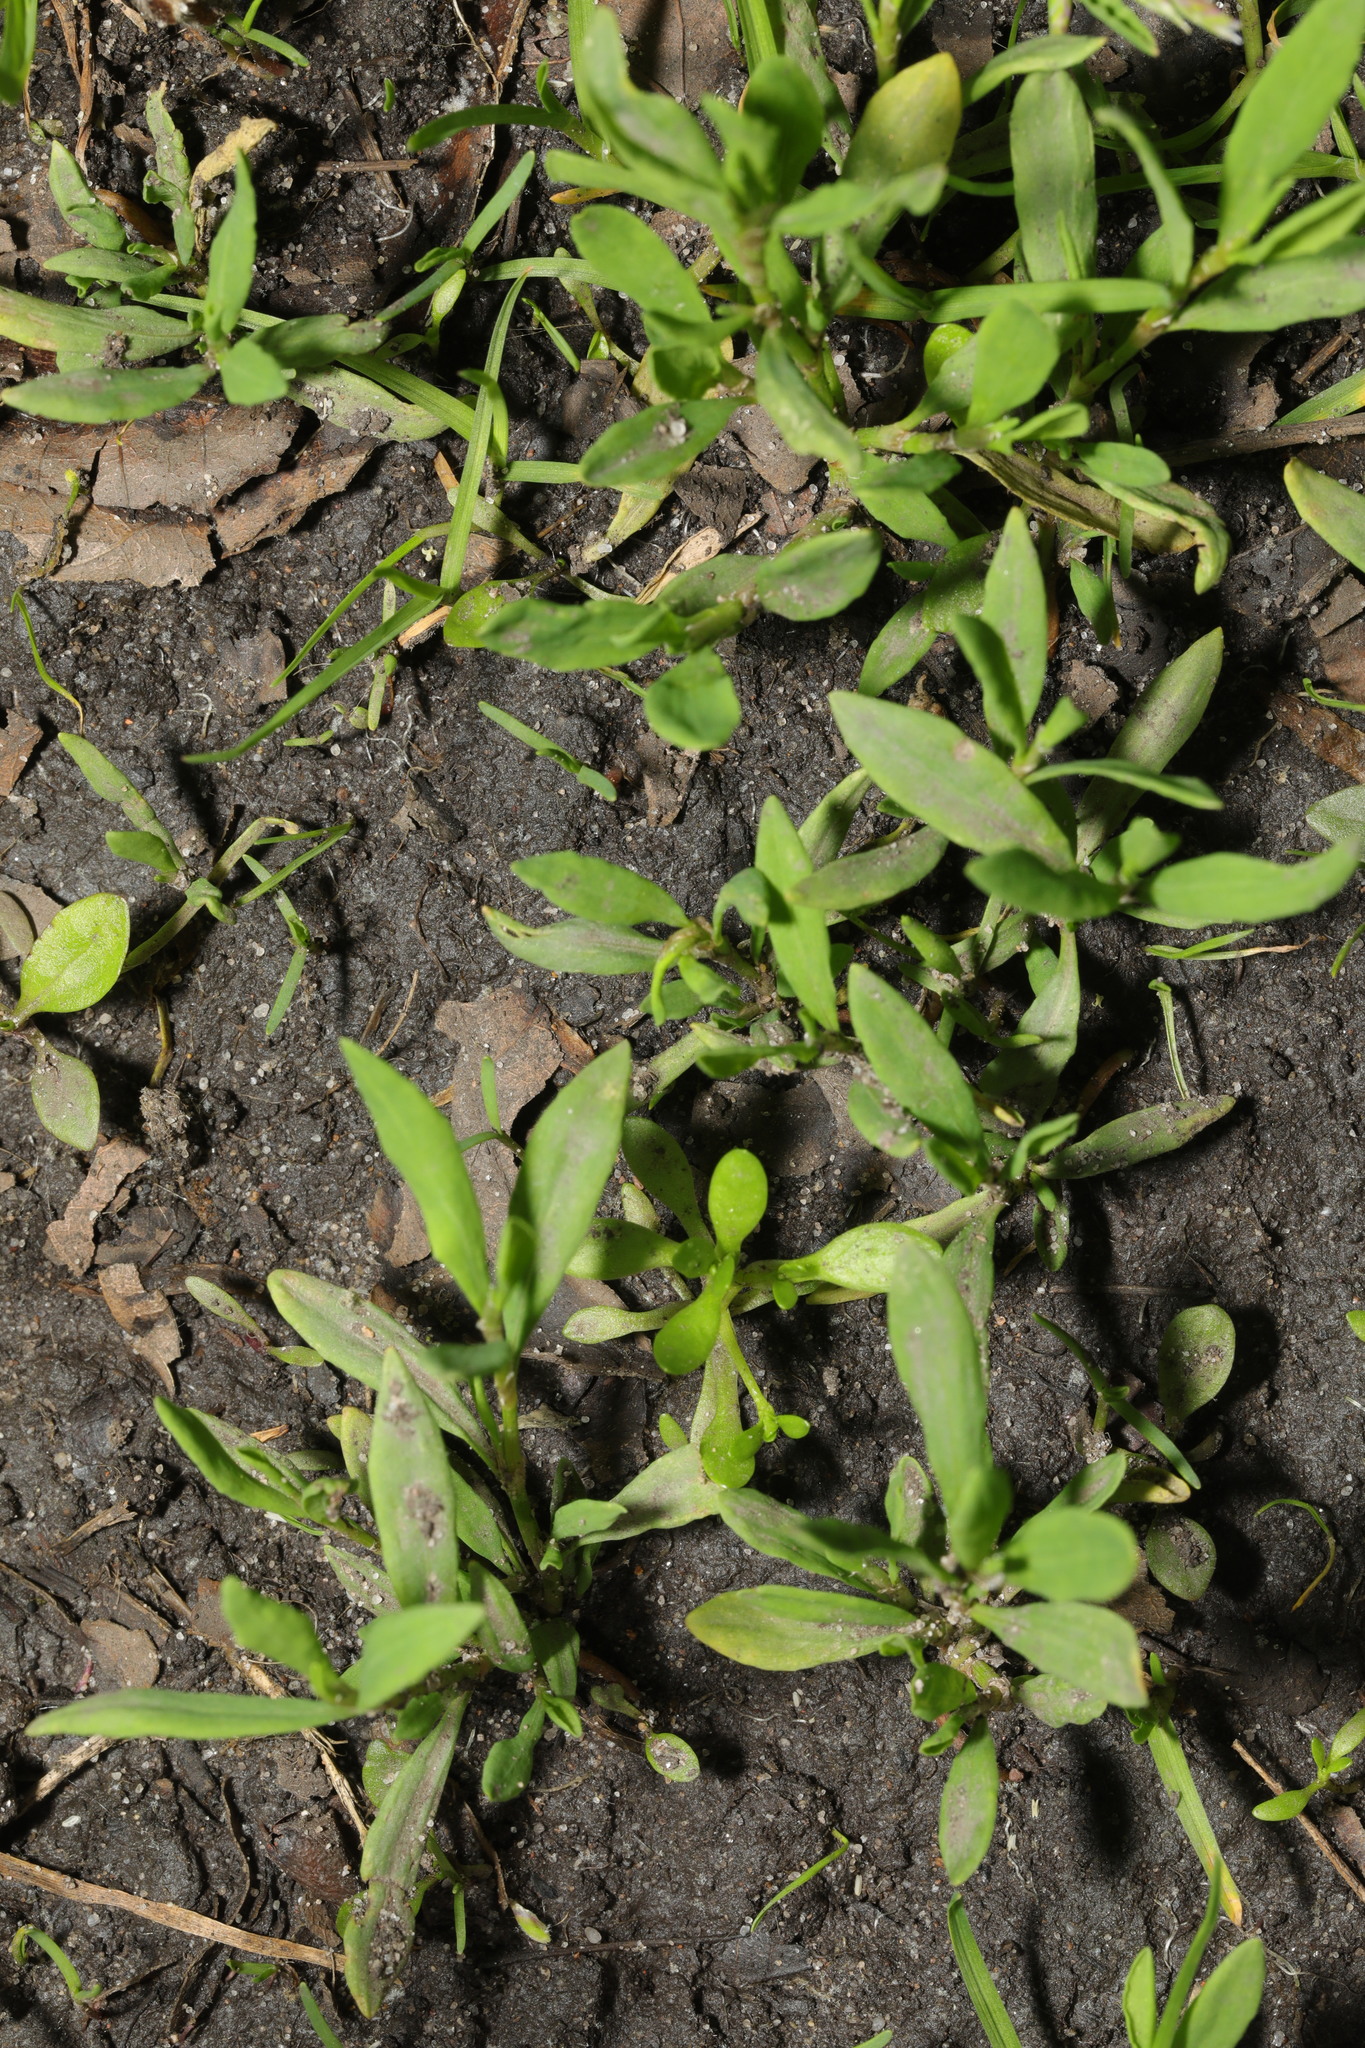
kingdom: Plantae
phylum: Tracheophyta
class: Magnoliopsida
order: Caryophyllales
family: Polygonaceae
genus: Polygonum
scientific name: Polygonum aviculare
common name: Prostrate knotweed
